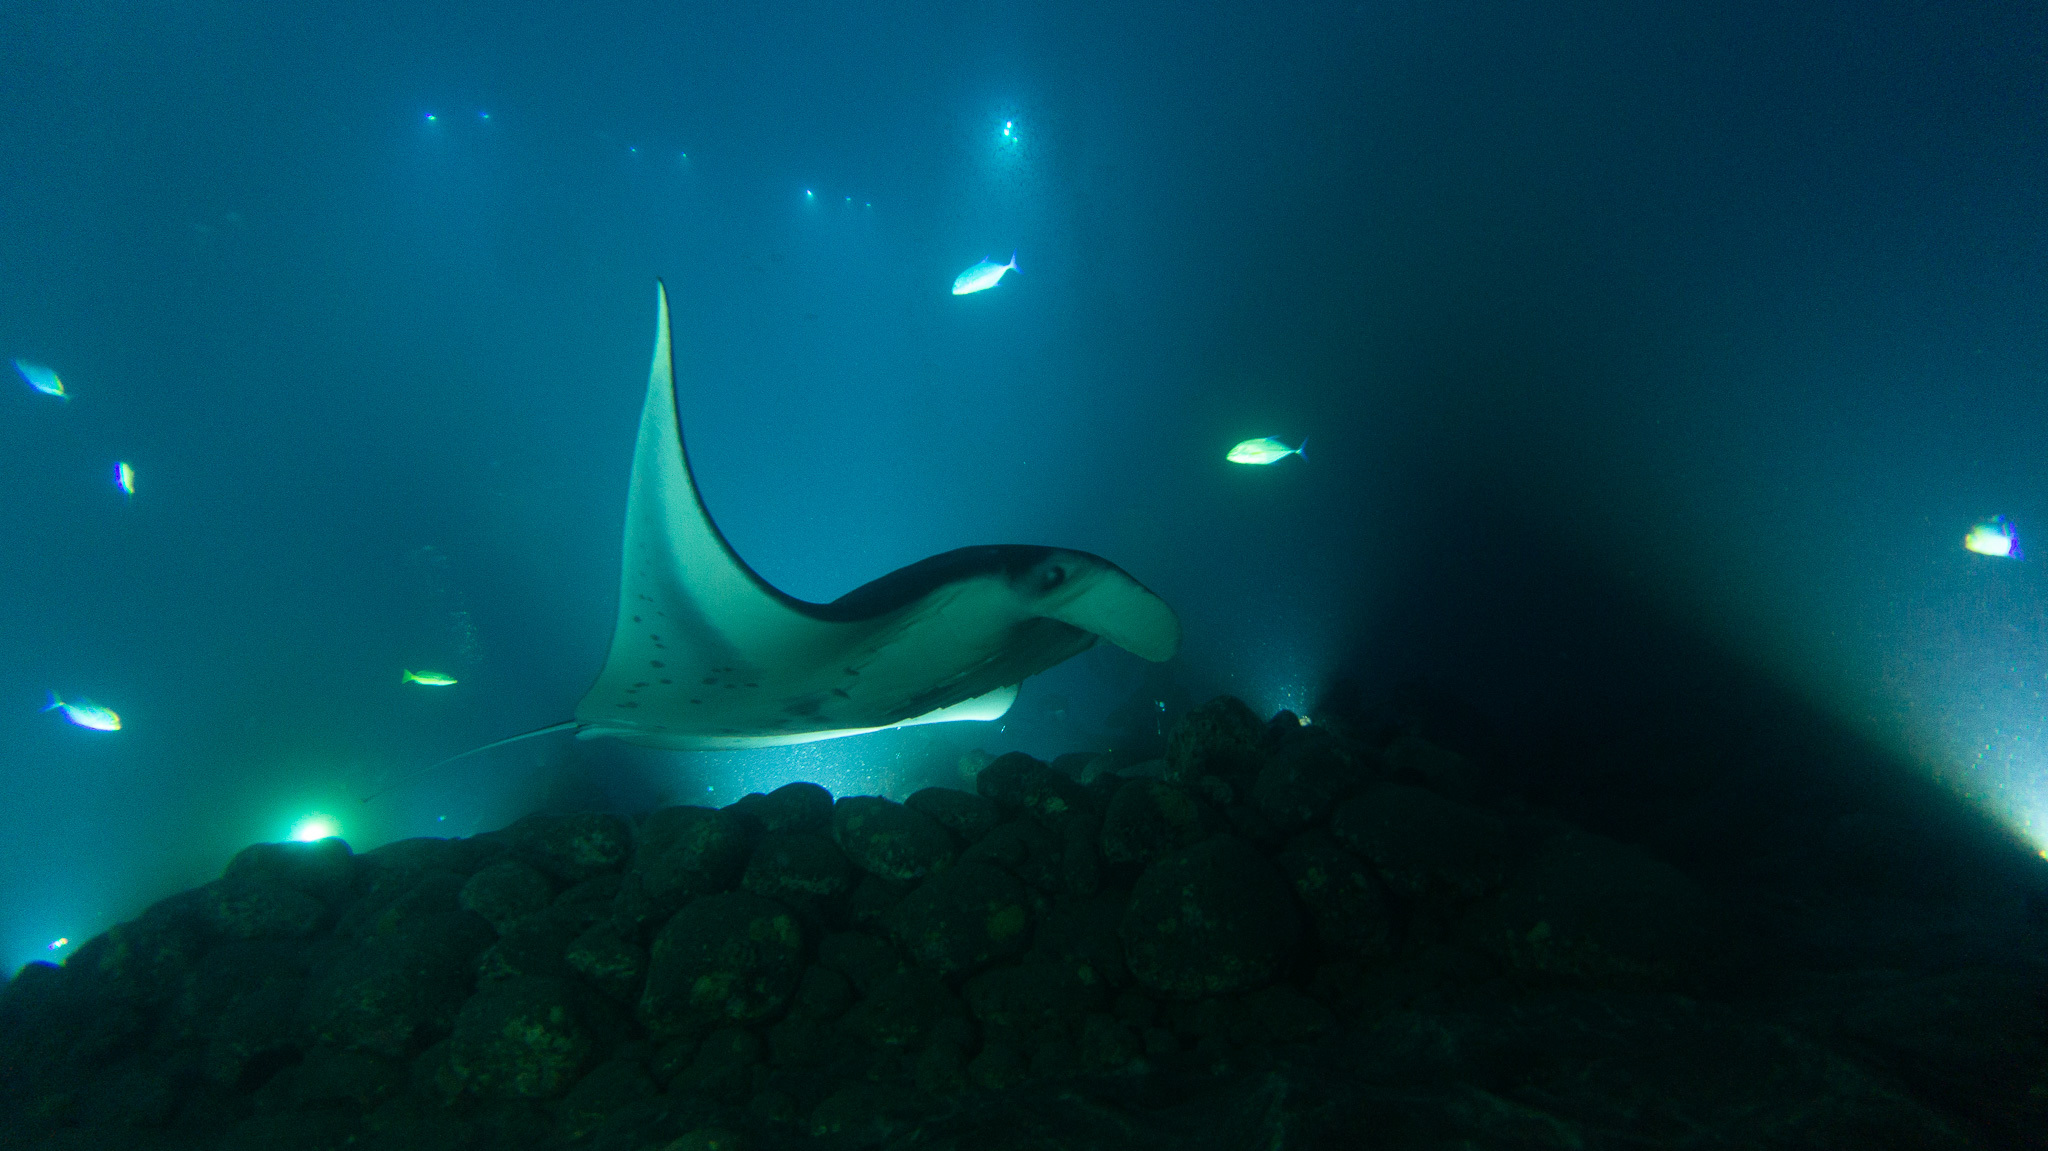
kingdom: Animalia
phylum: Chordata
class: Elasmobranchii
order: Myliobatiformes
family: Myliobatidae
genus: Mobula
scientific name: Mobula alfredi
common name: Reef manta ray
